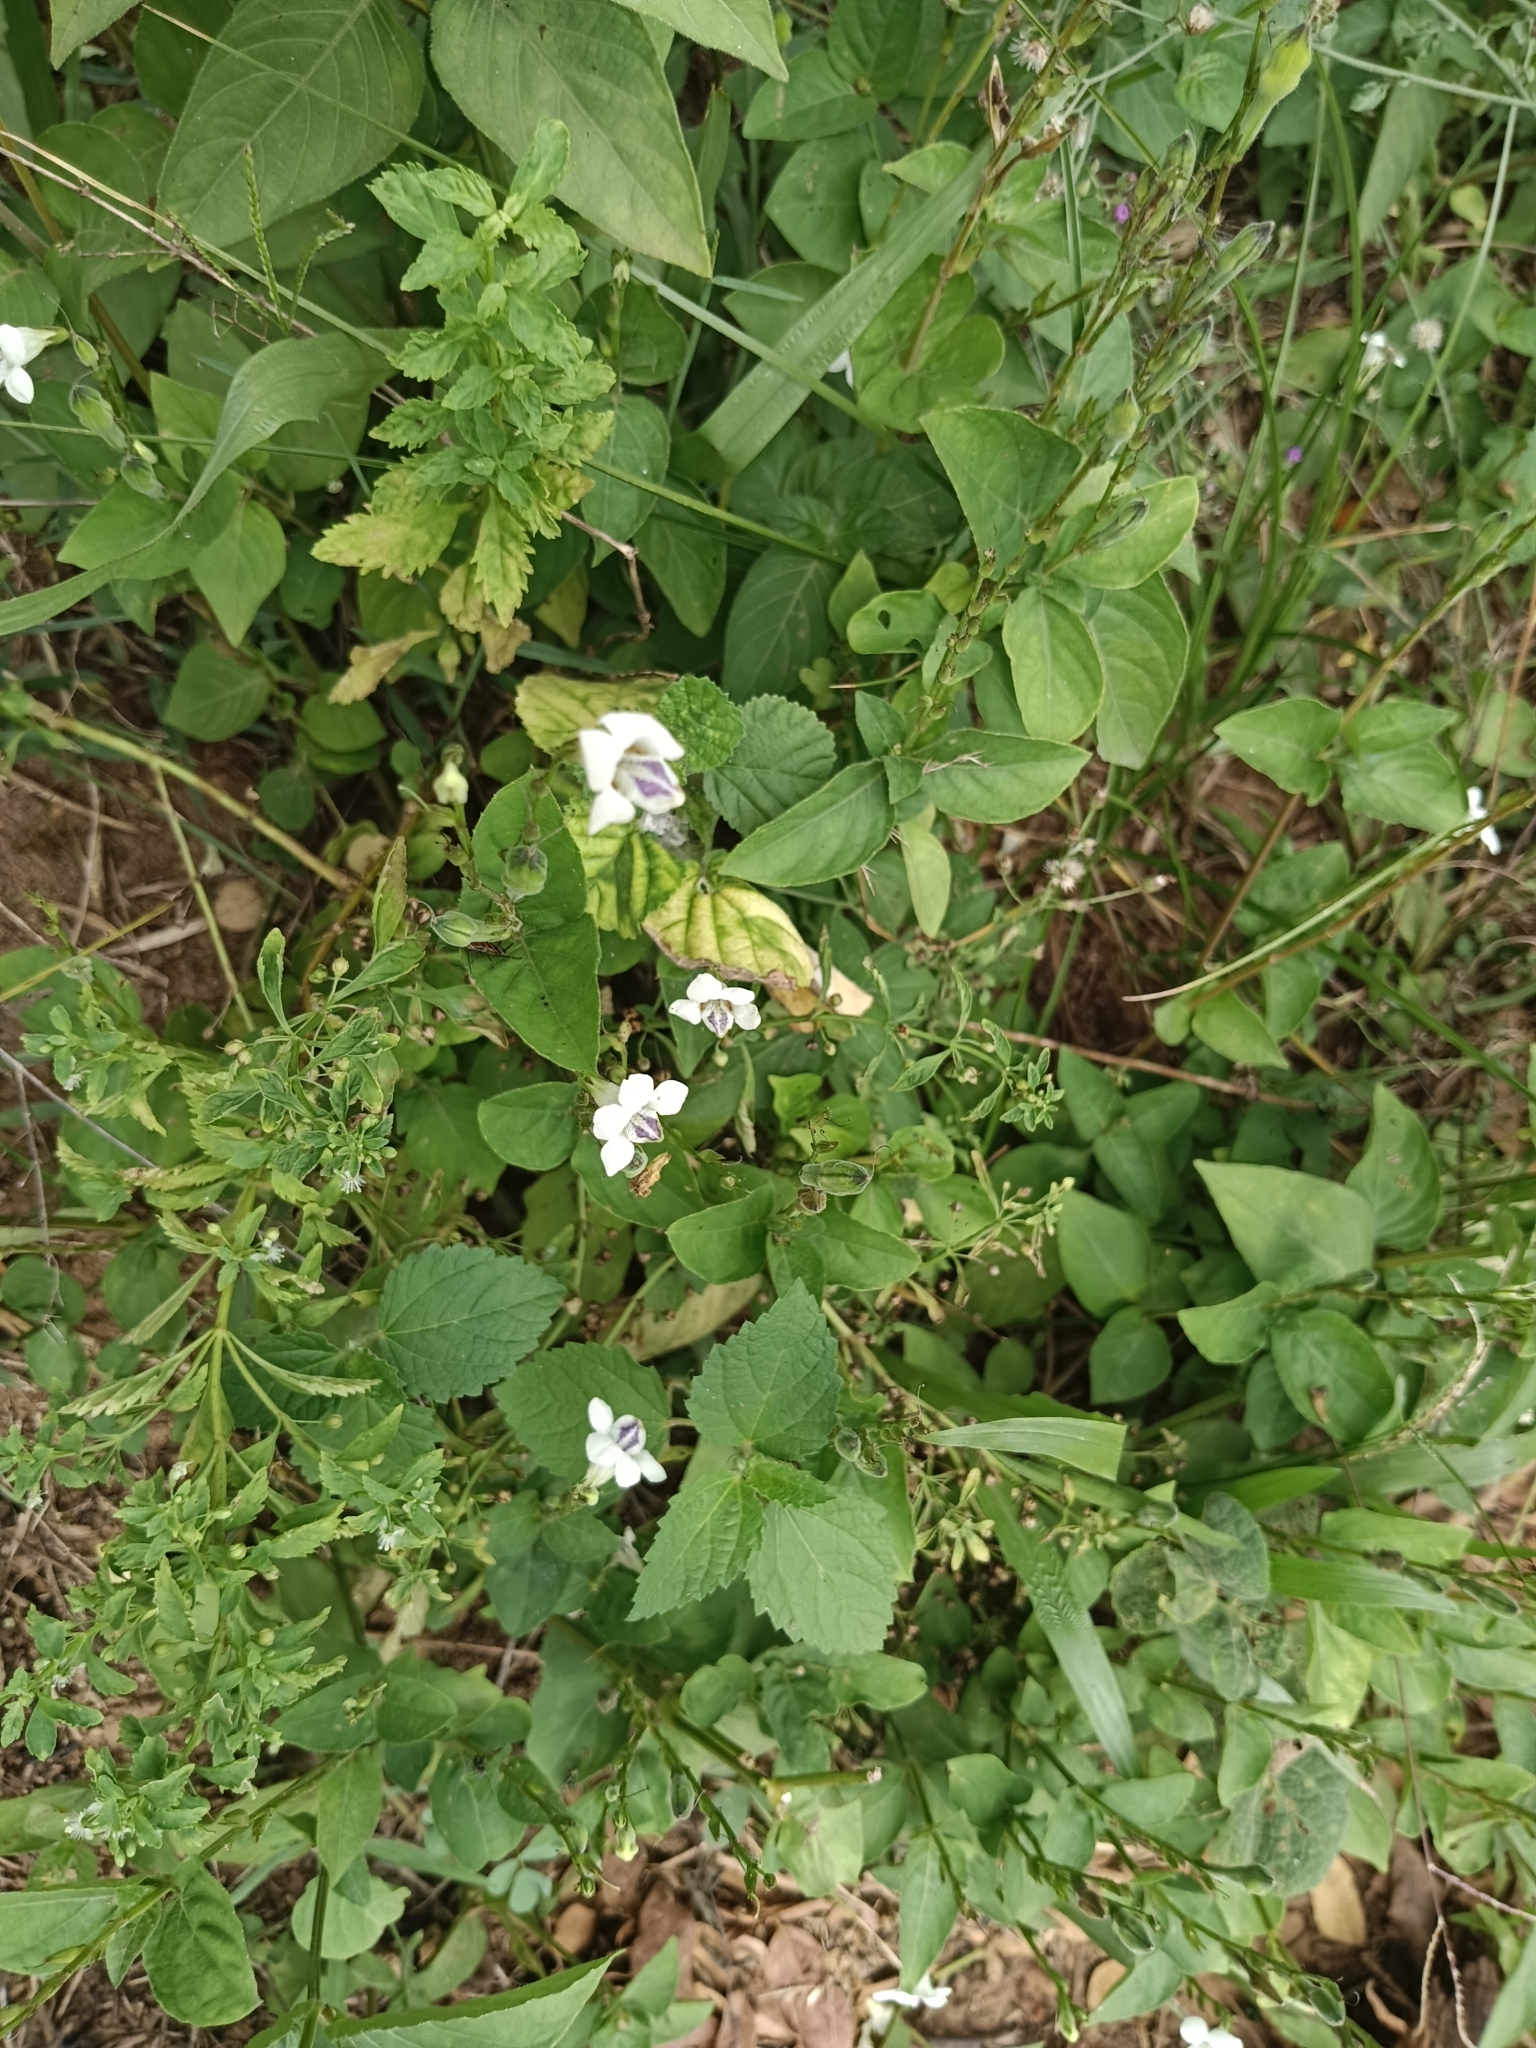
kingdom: Plantae
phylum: Tracheophyta
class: Magnoliopsida
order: Lamiales
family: Acanthaceae
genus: Asystasia
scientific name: Asystasia intrusa
